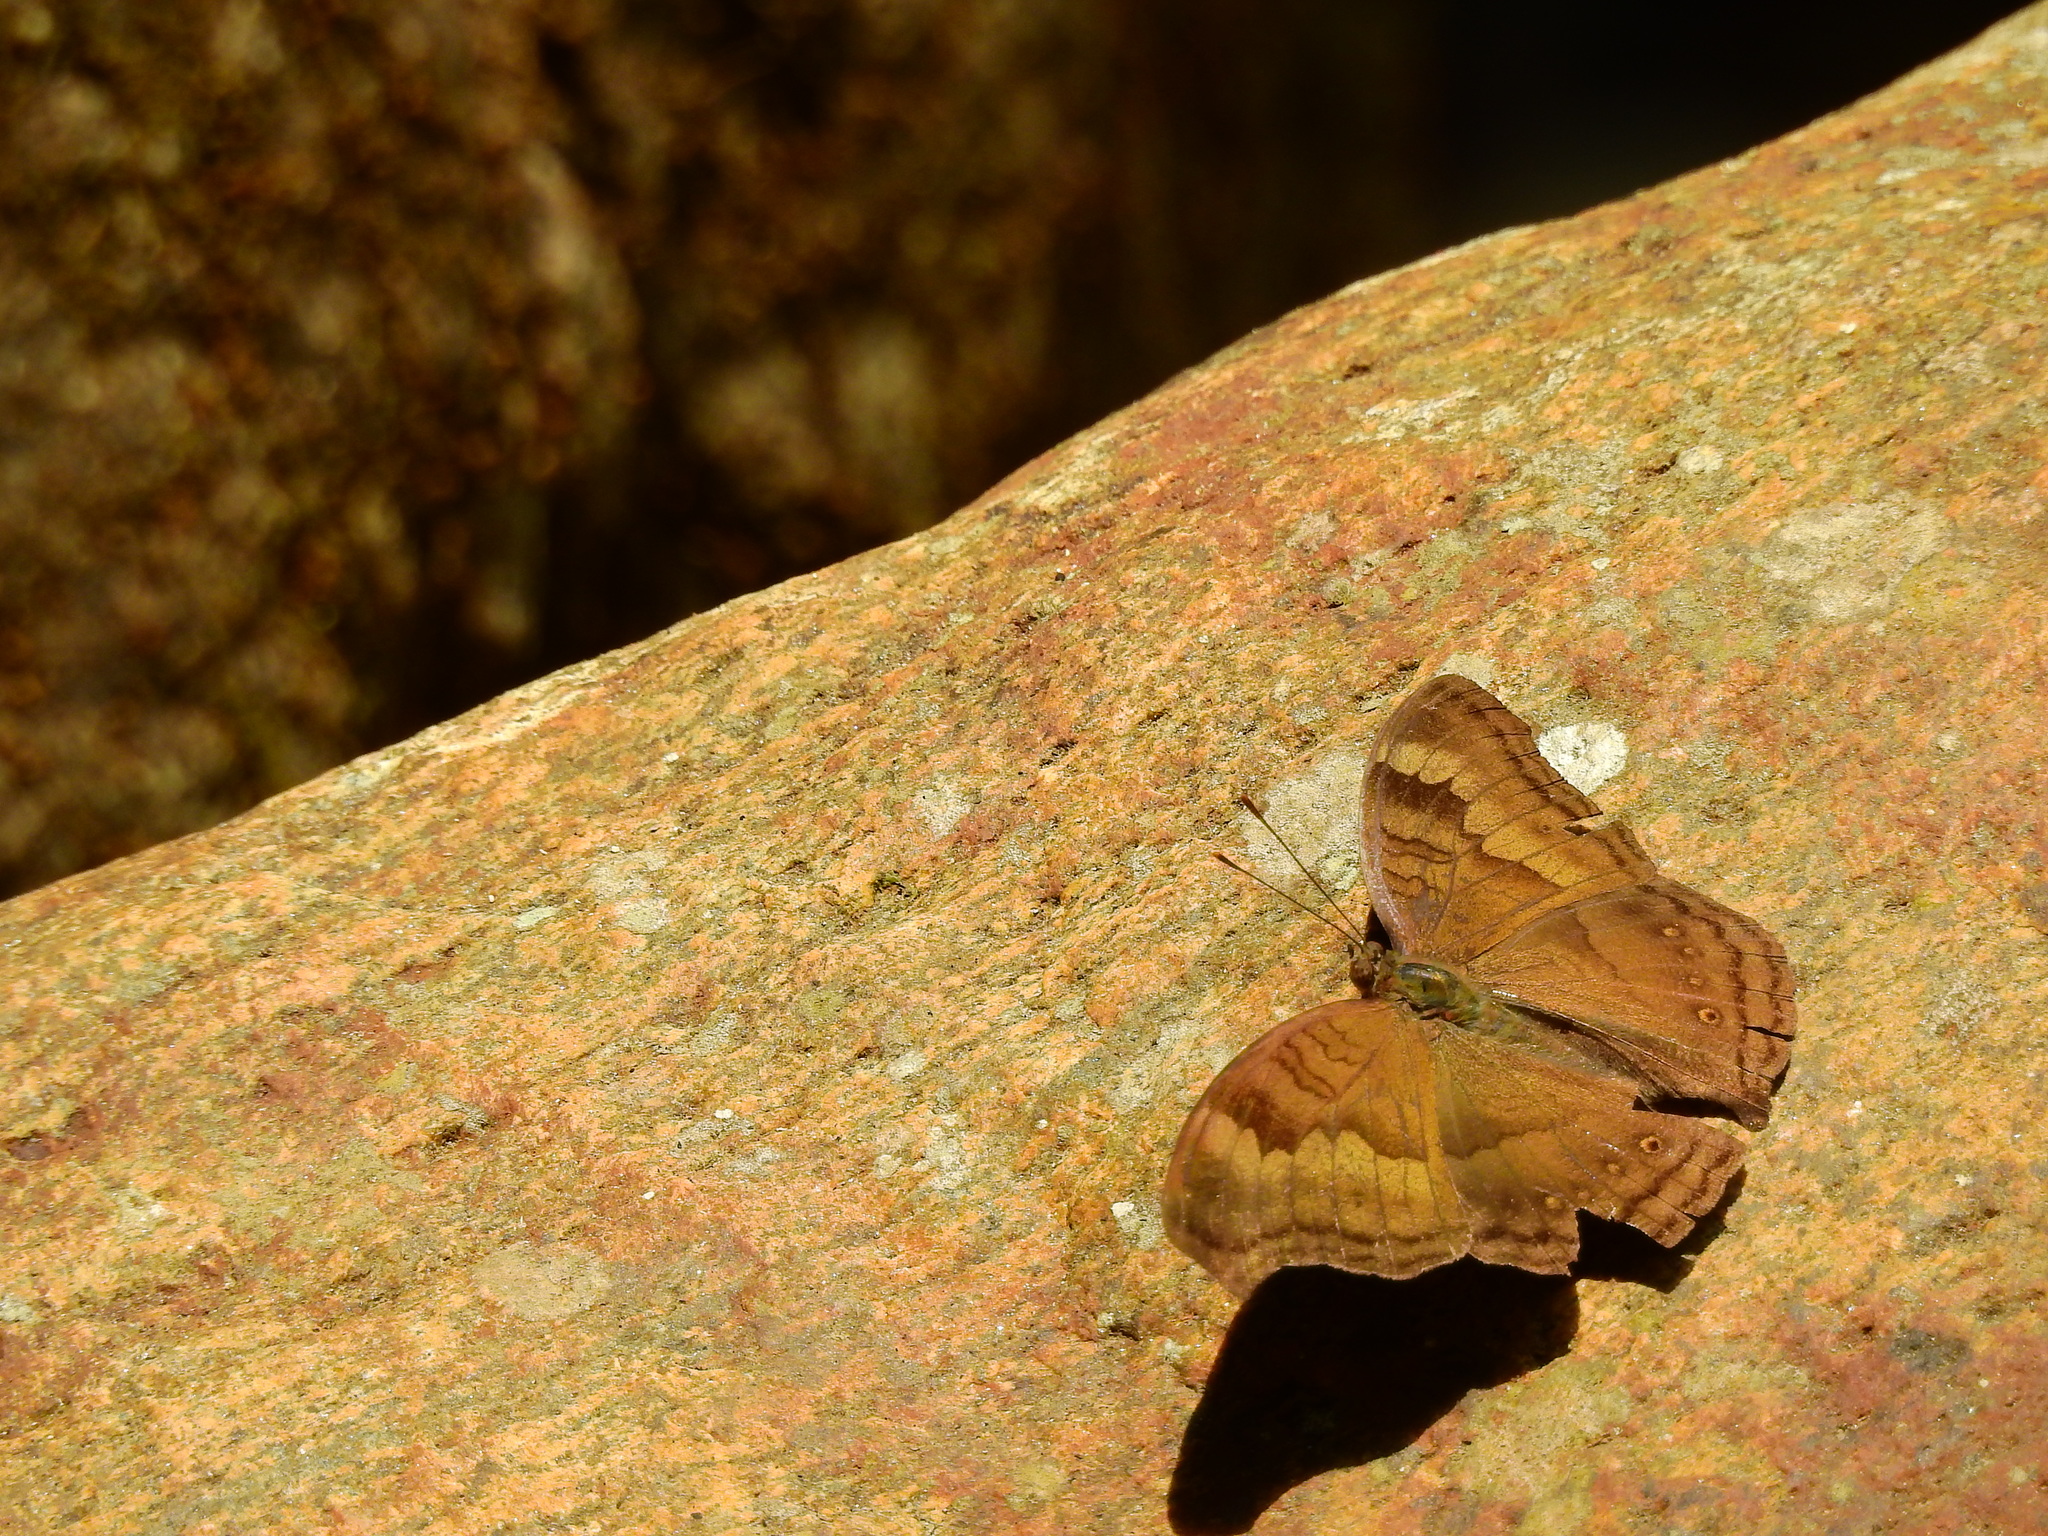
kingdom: Animalia
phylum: Arthropoda
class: Insecta
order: Lepidoptera
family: Nymphalidae
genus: Junonia
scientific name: Junonia iphita
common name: Chocolate pansy
